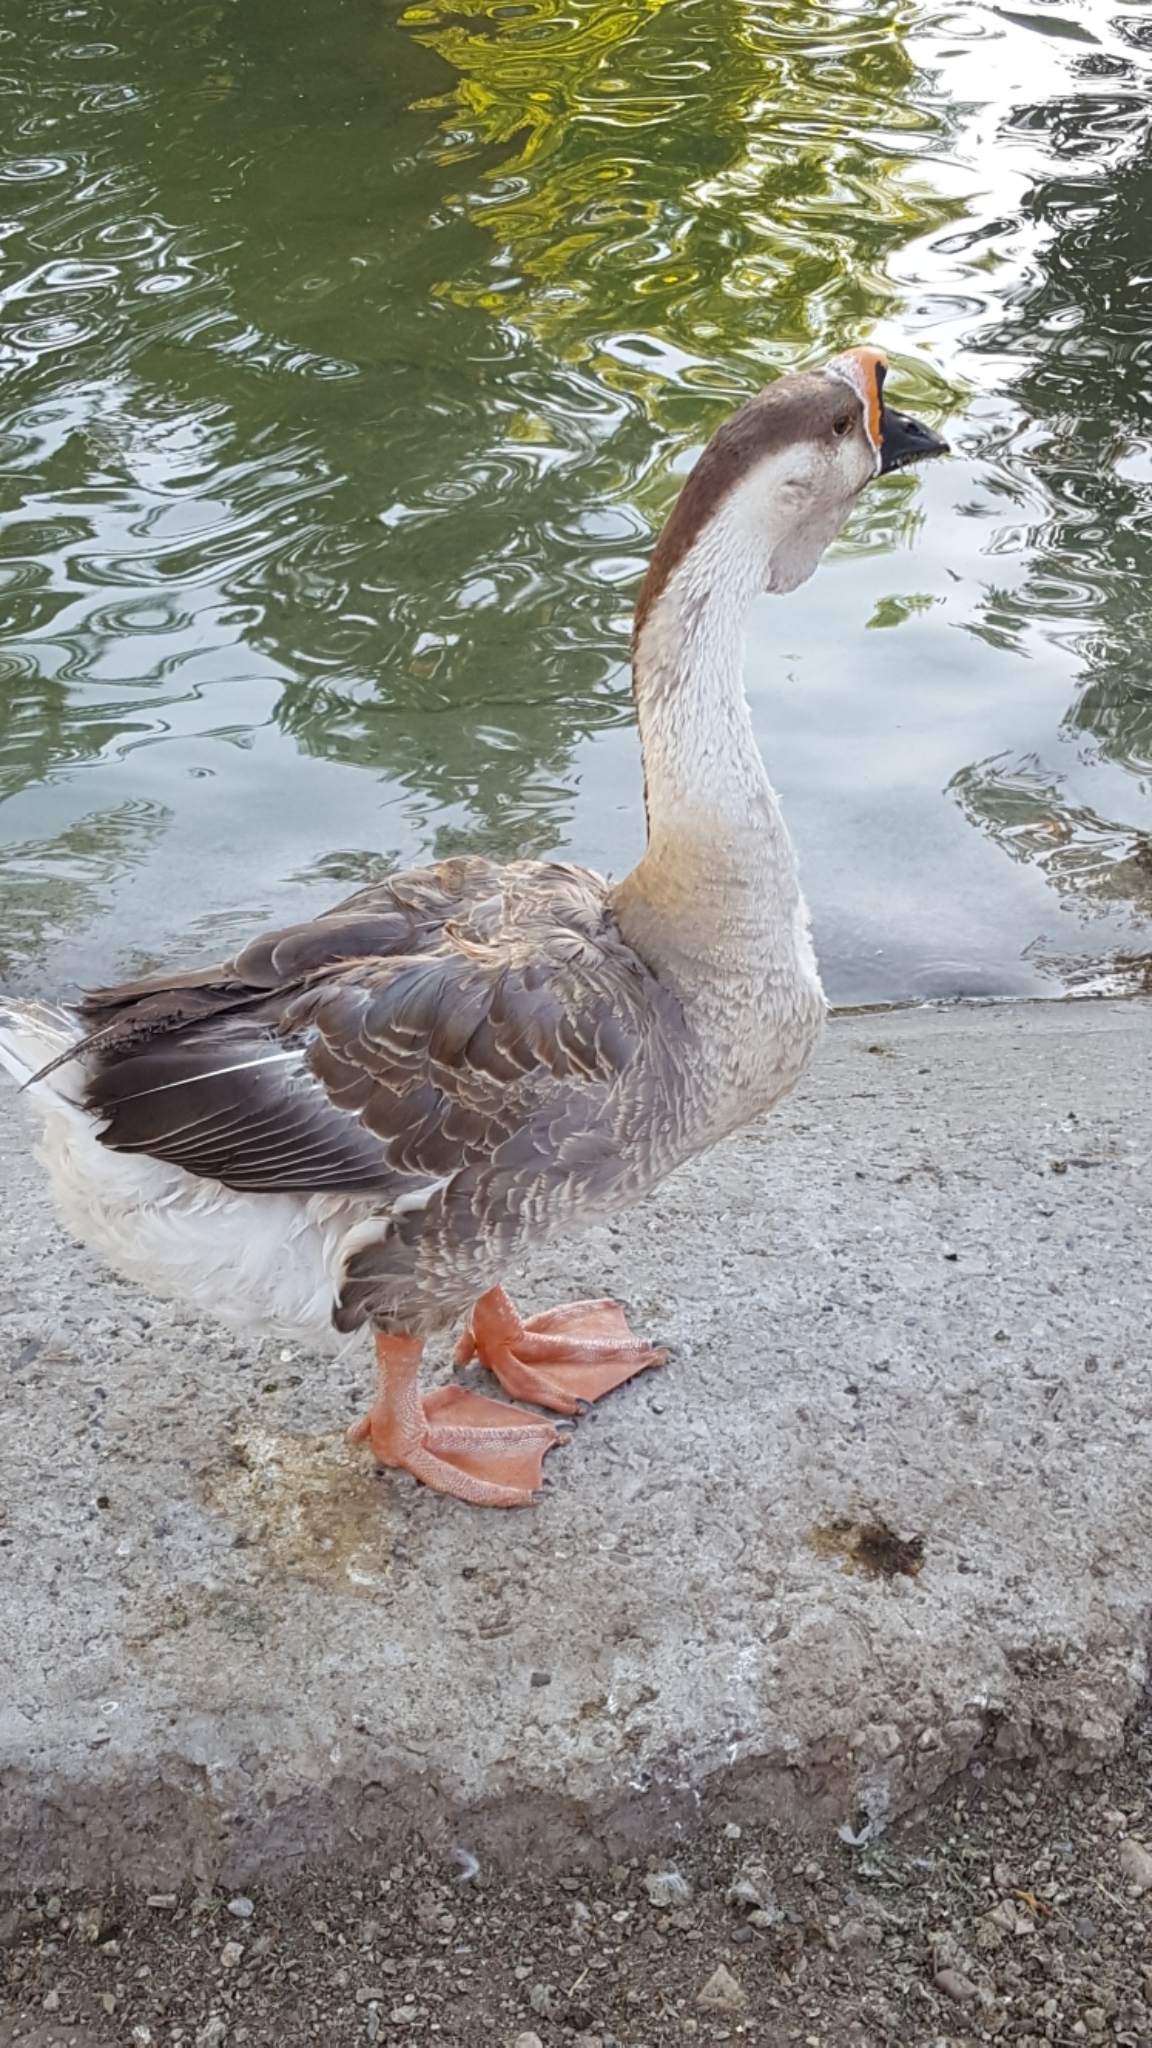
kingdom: Animalia
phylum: Chordata
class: Aves
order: Anseriformes
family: Anatidae
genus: Anser
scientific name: Anser cygnoides
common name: Swan goose
